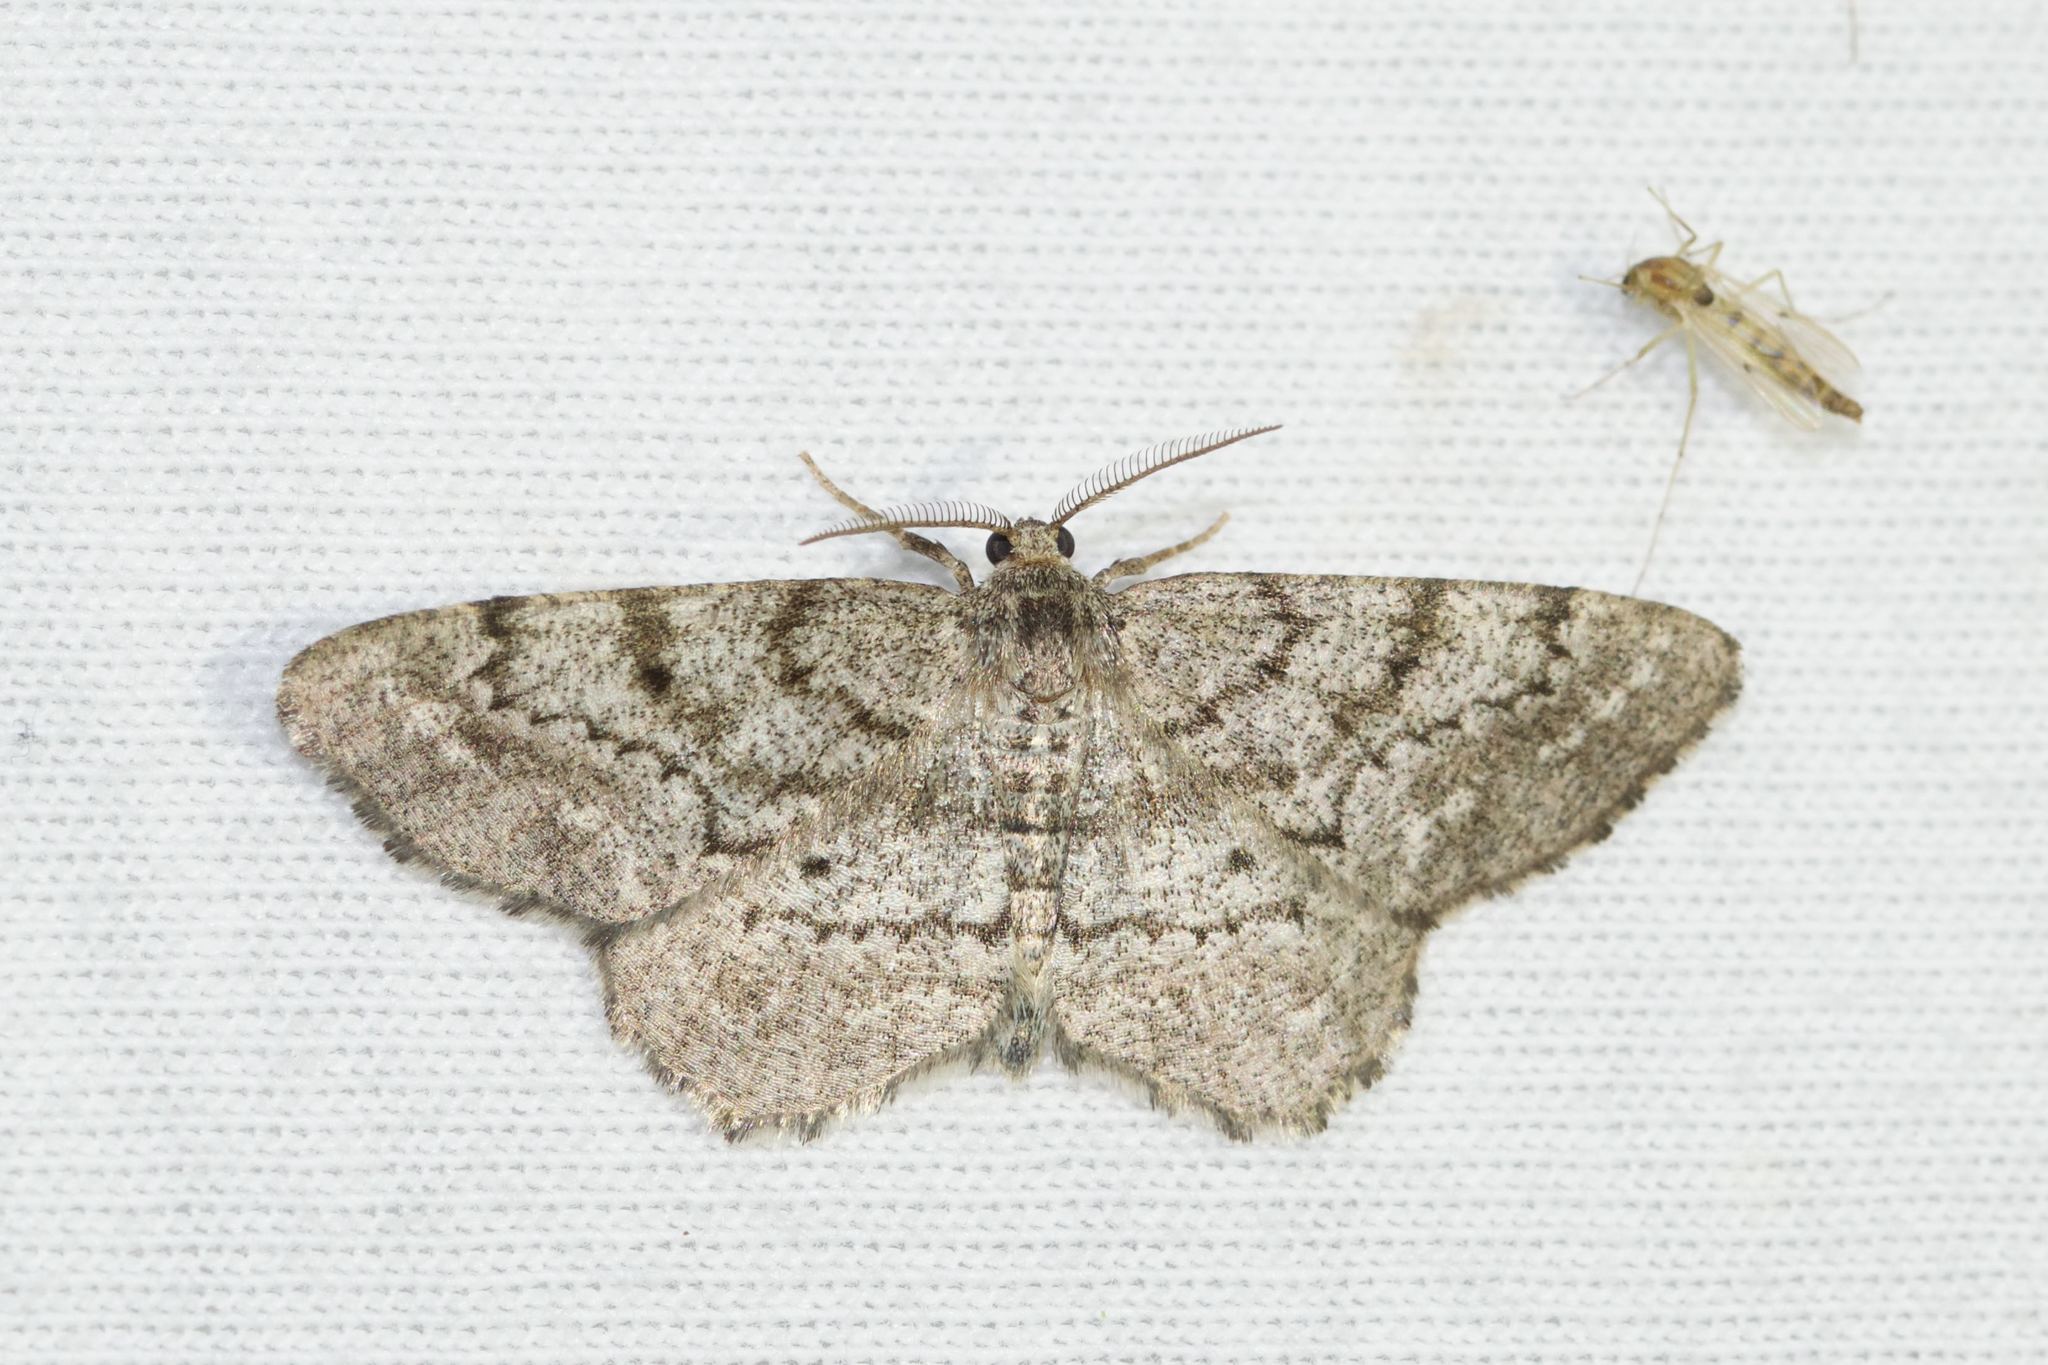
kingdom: Animalia
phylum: Arthropoda
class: Insecta
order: Lepidoptera
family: Geometridae
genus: Hypagyrtis
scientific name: Hypagyrtis piniata
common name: Pine measuringworm
